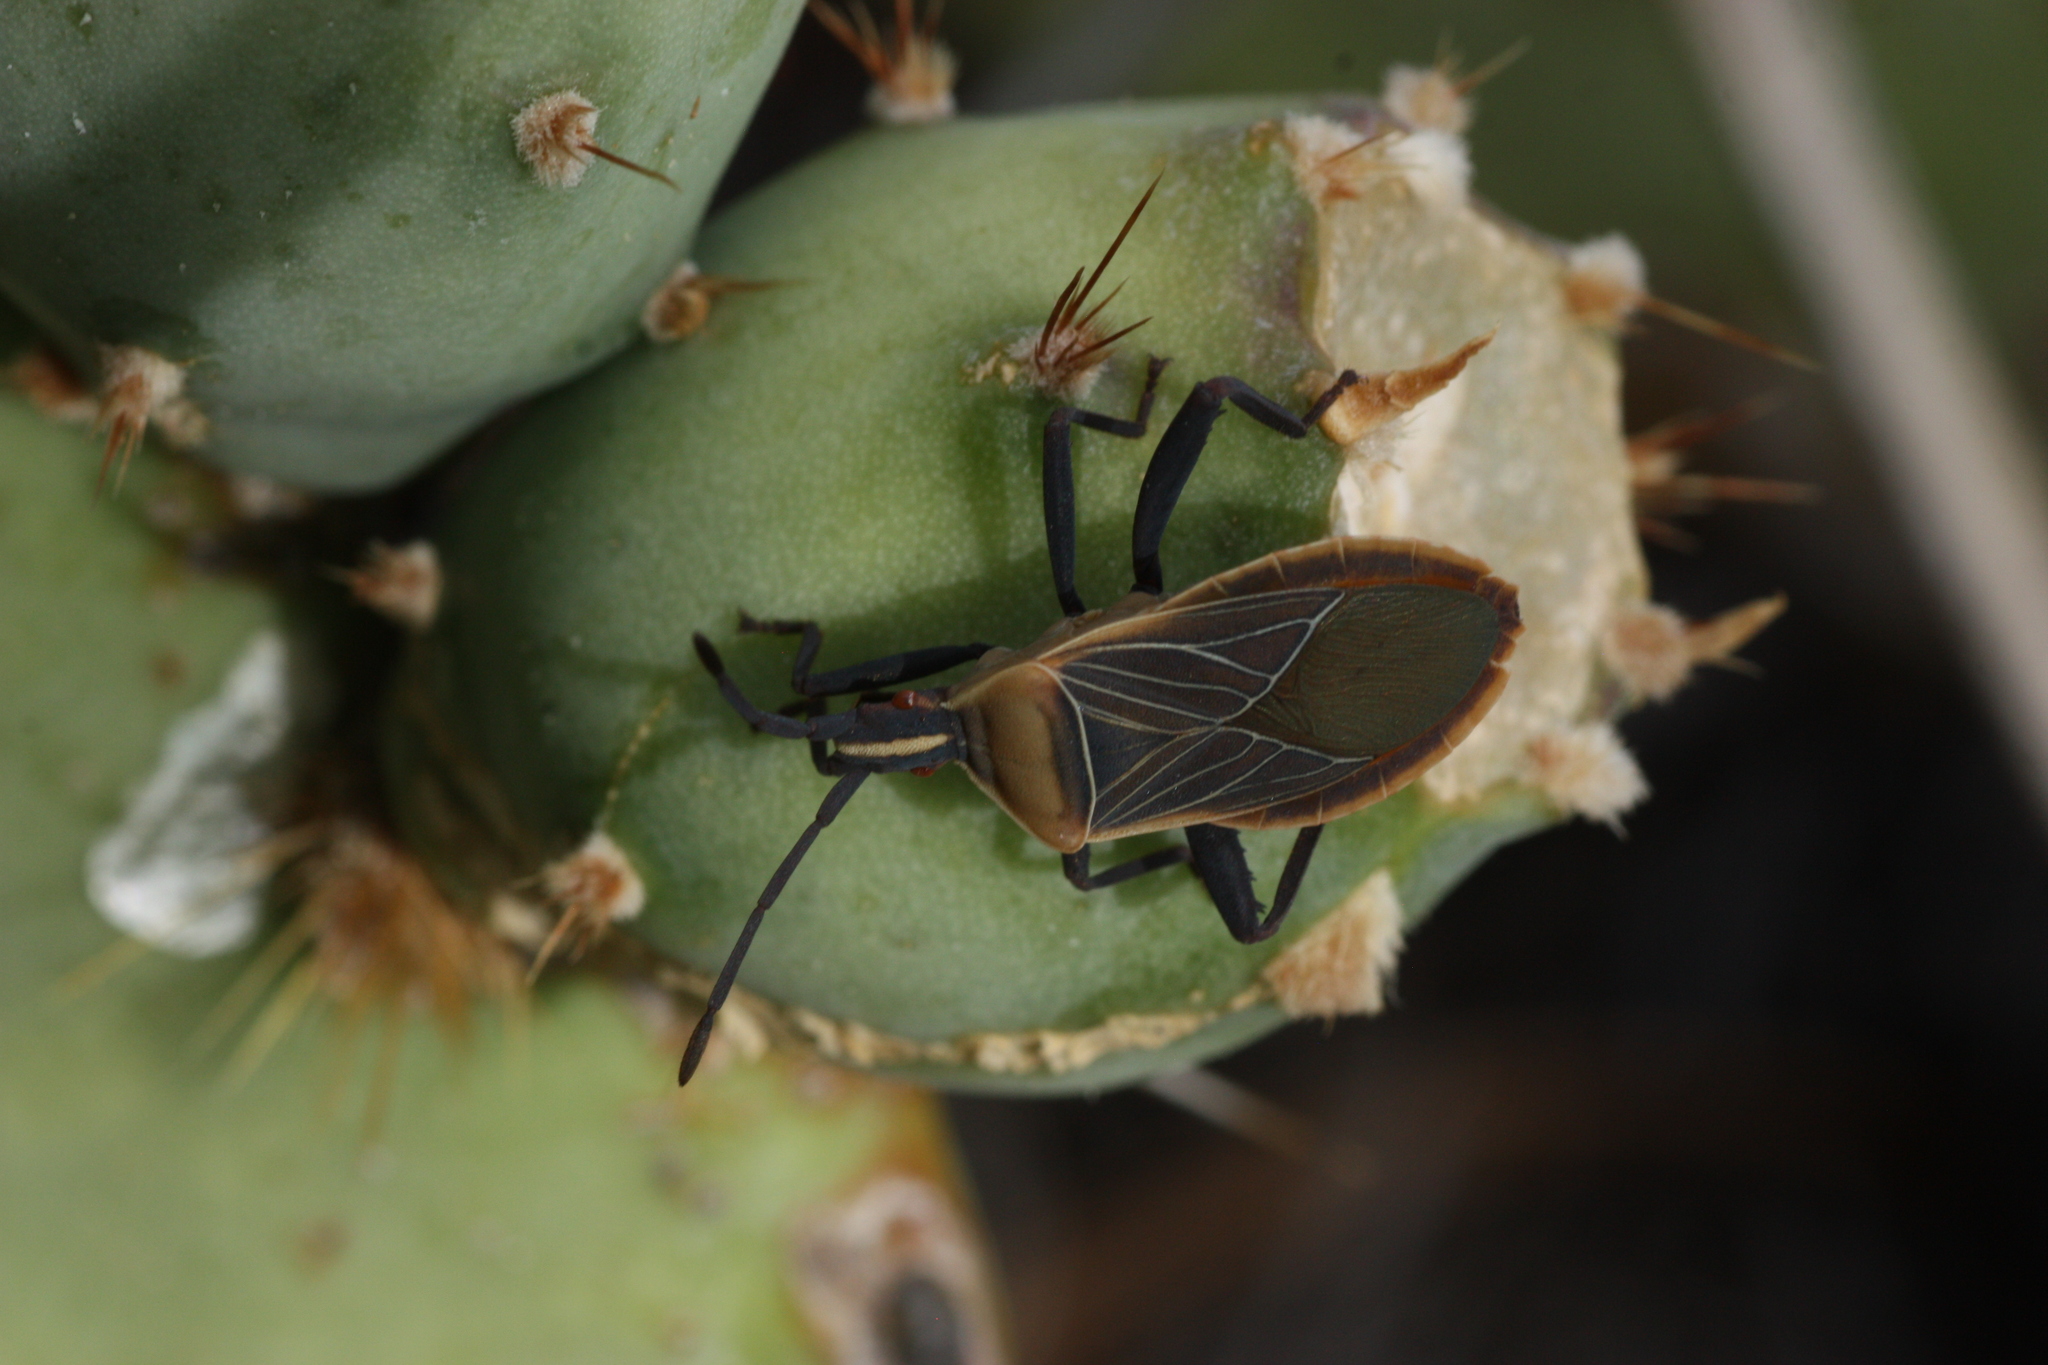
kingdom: Animalia
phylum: Arthropoda
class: Insecta
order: Hemiptera
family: Coreidae
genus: Chelinidea
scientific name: Chelinidea vittiger
